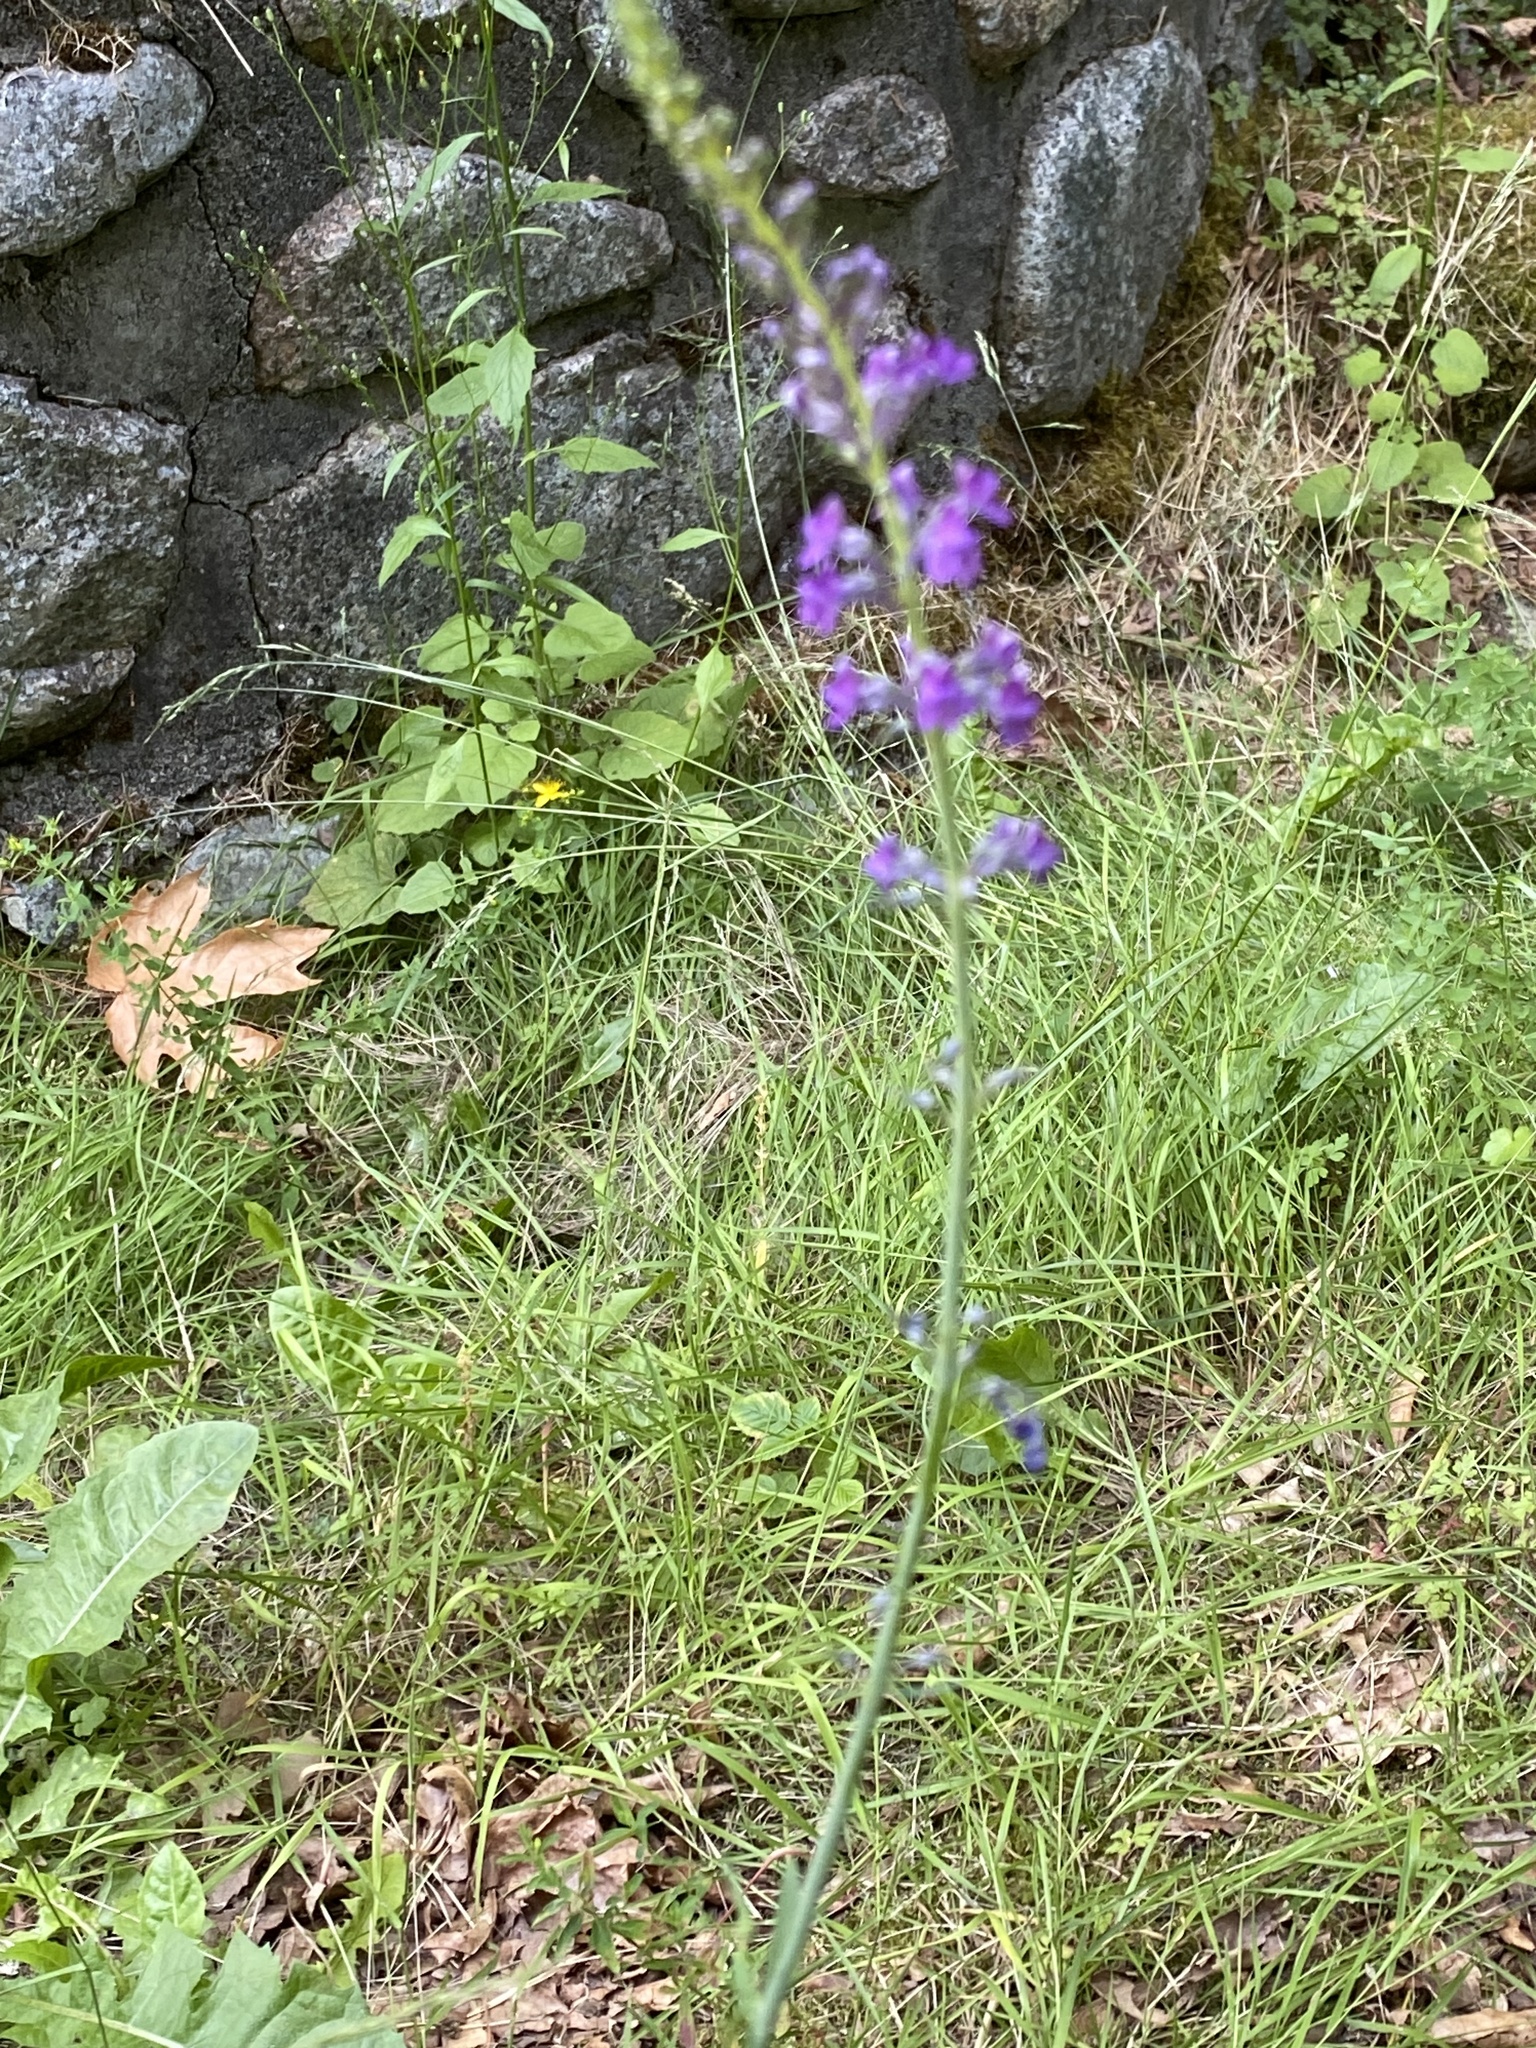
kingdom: Plantae
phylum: Tracheophyta
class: Magnoliopsida
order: Lamiales
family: Plantaginaceae
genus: Linaria
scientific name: Linaria purpurea
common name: Purple toadflax
